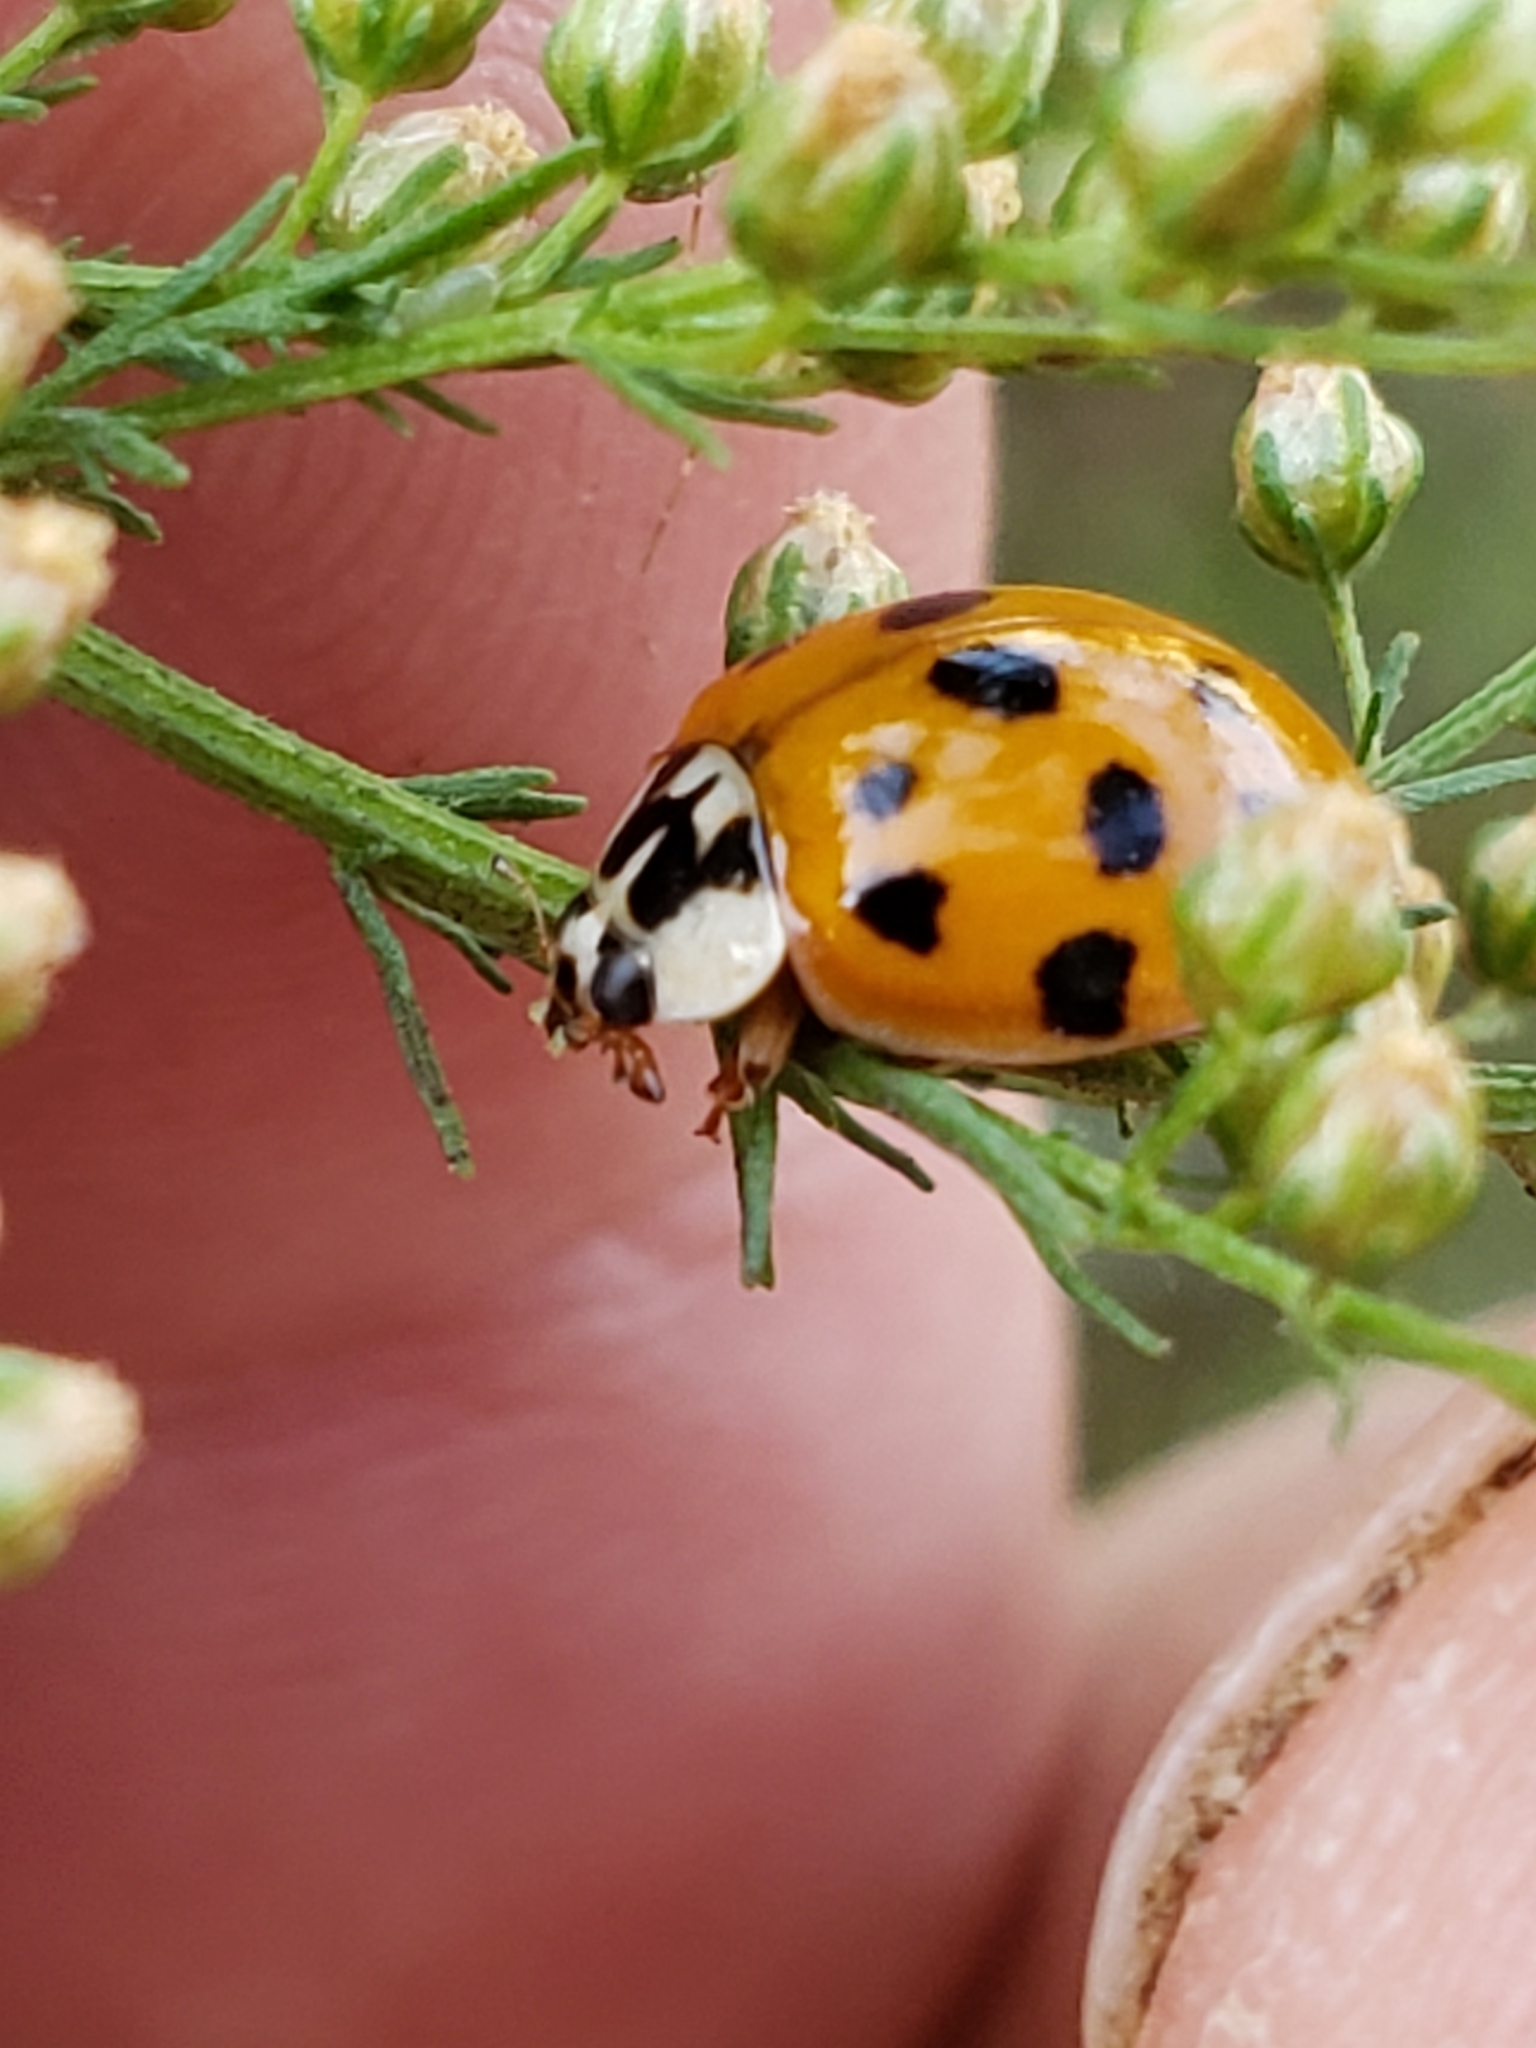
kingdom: Animalia
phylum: Arthropoda
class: Insecta
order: Coleoptera
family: Coccinellidae
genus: Harmonia
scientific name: Harmonia axyridis
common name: Harlequin ladybird
